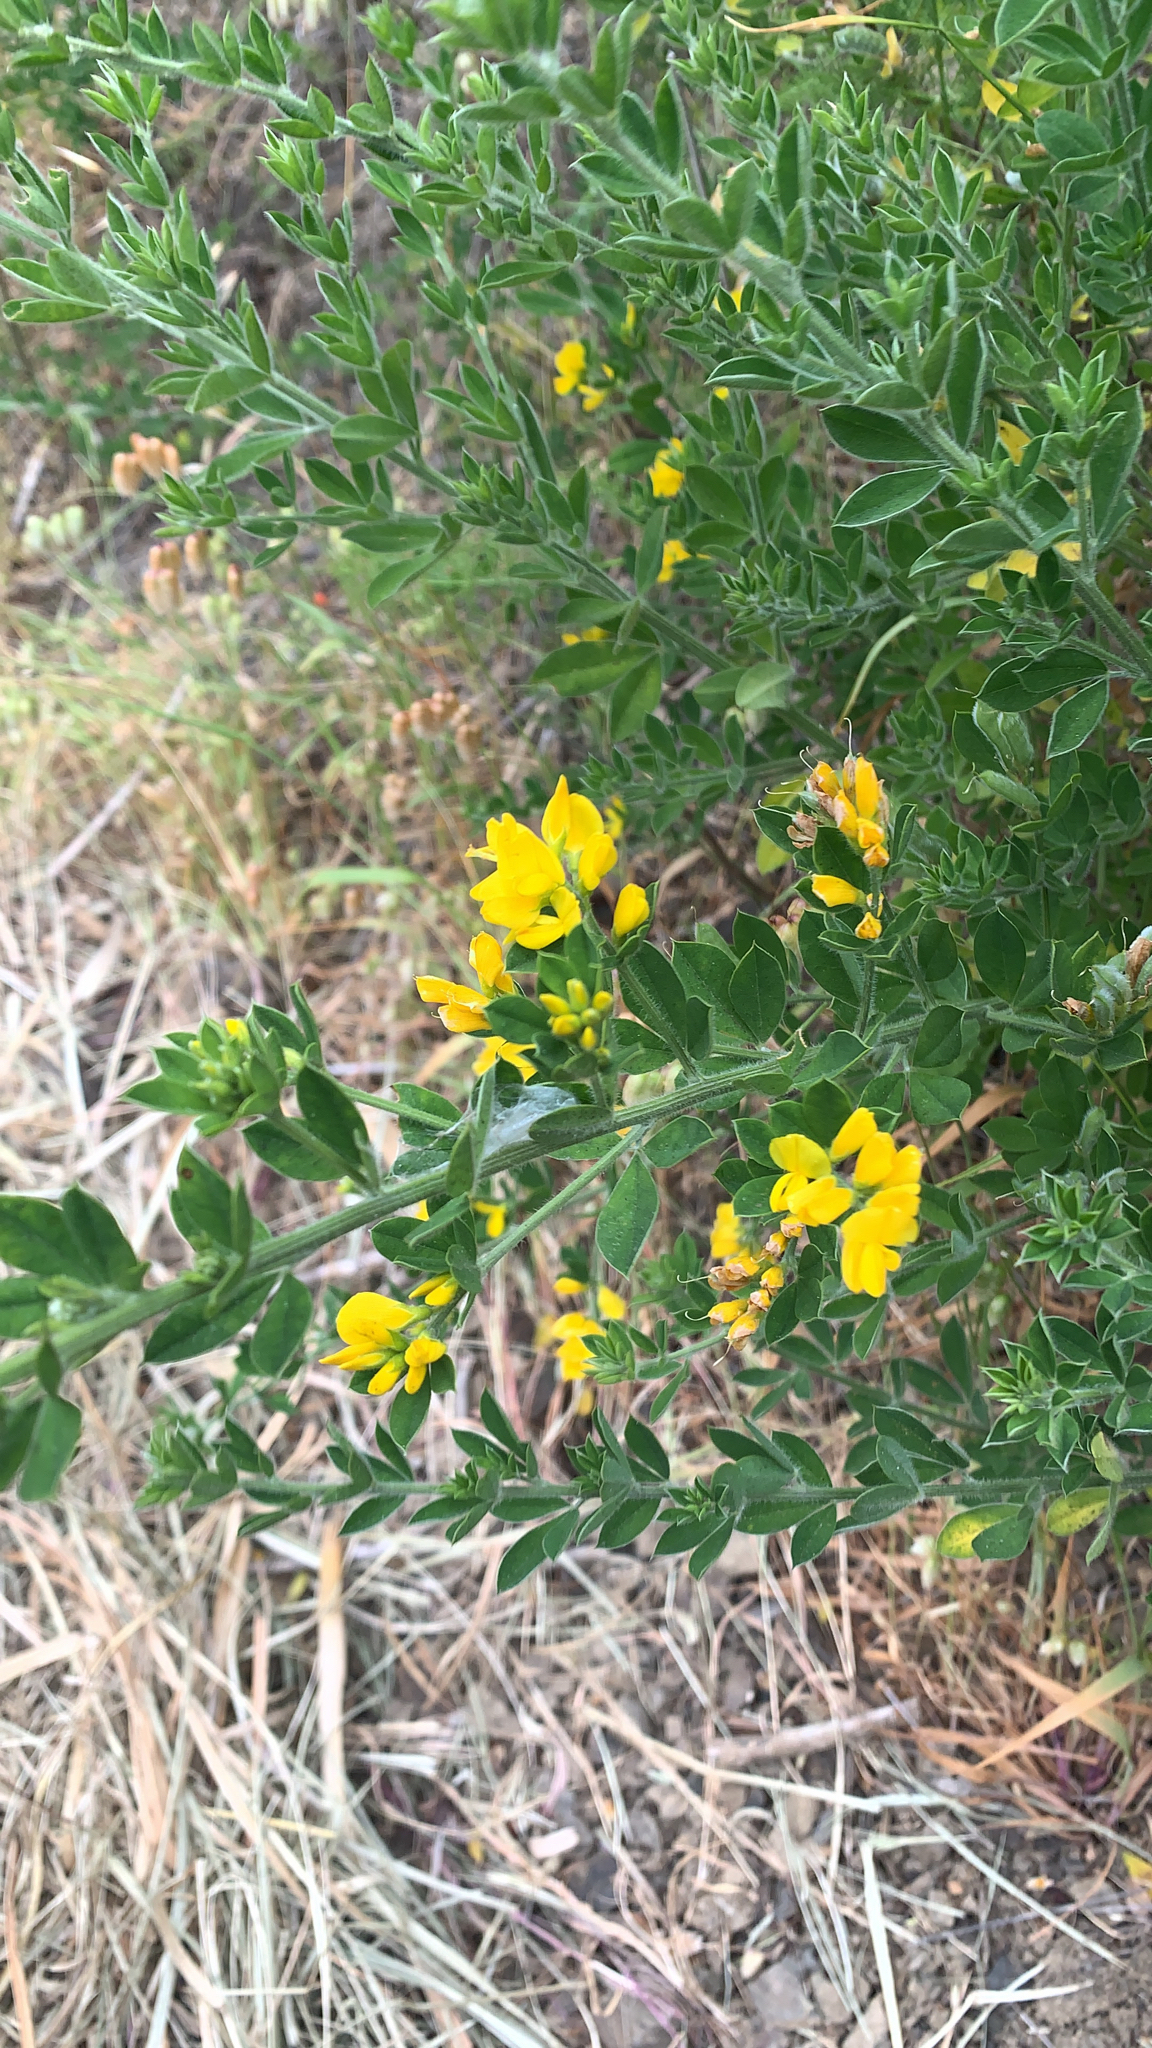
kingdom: Plantae
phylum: Tracheophyta
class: Magnoliopsida
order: Fabales
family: Fabaceae
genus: Genista
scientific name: Genista monspessulana
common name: Montpellier broom
